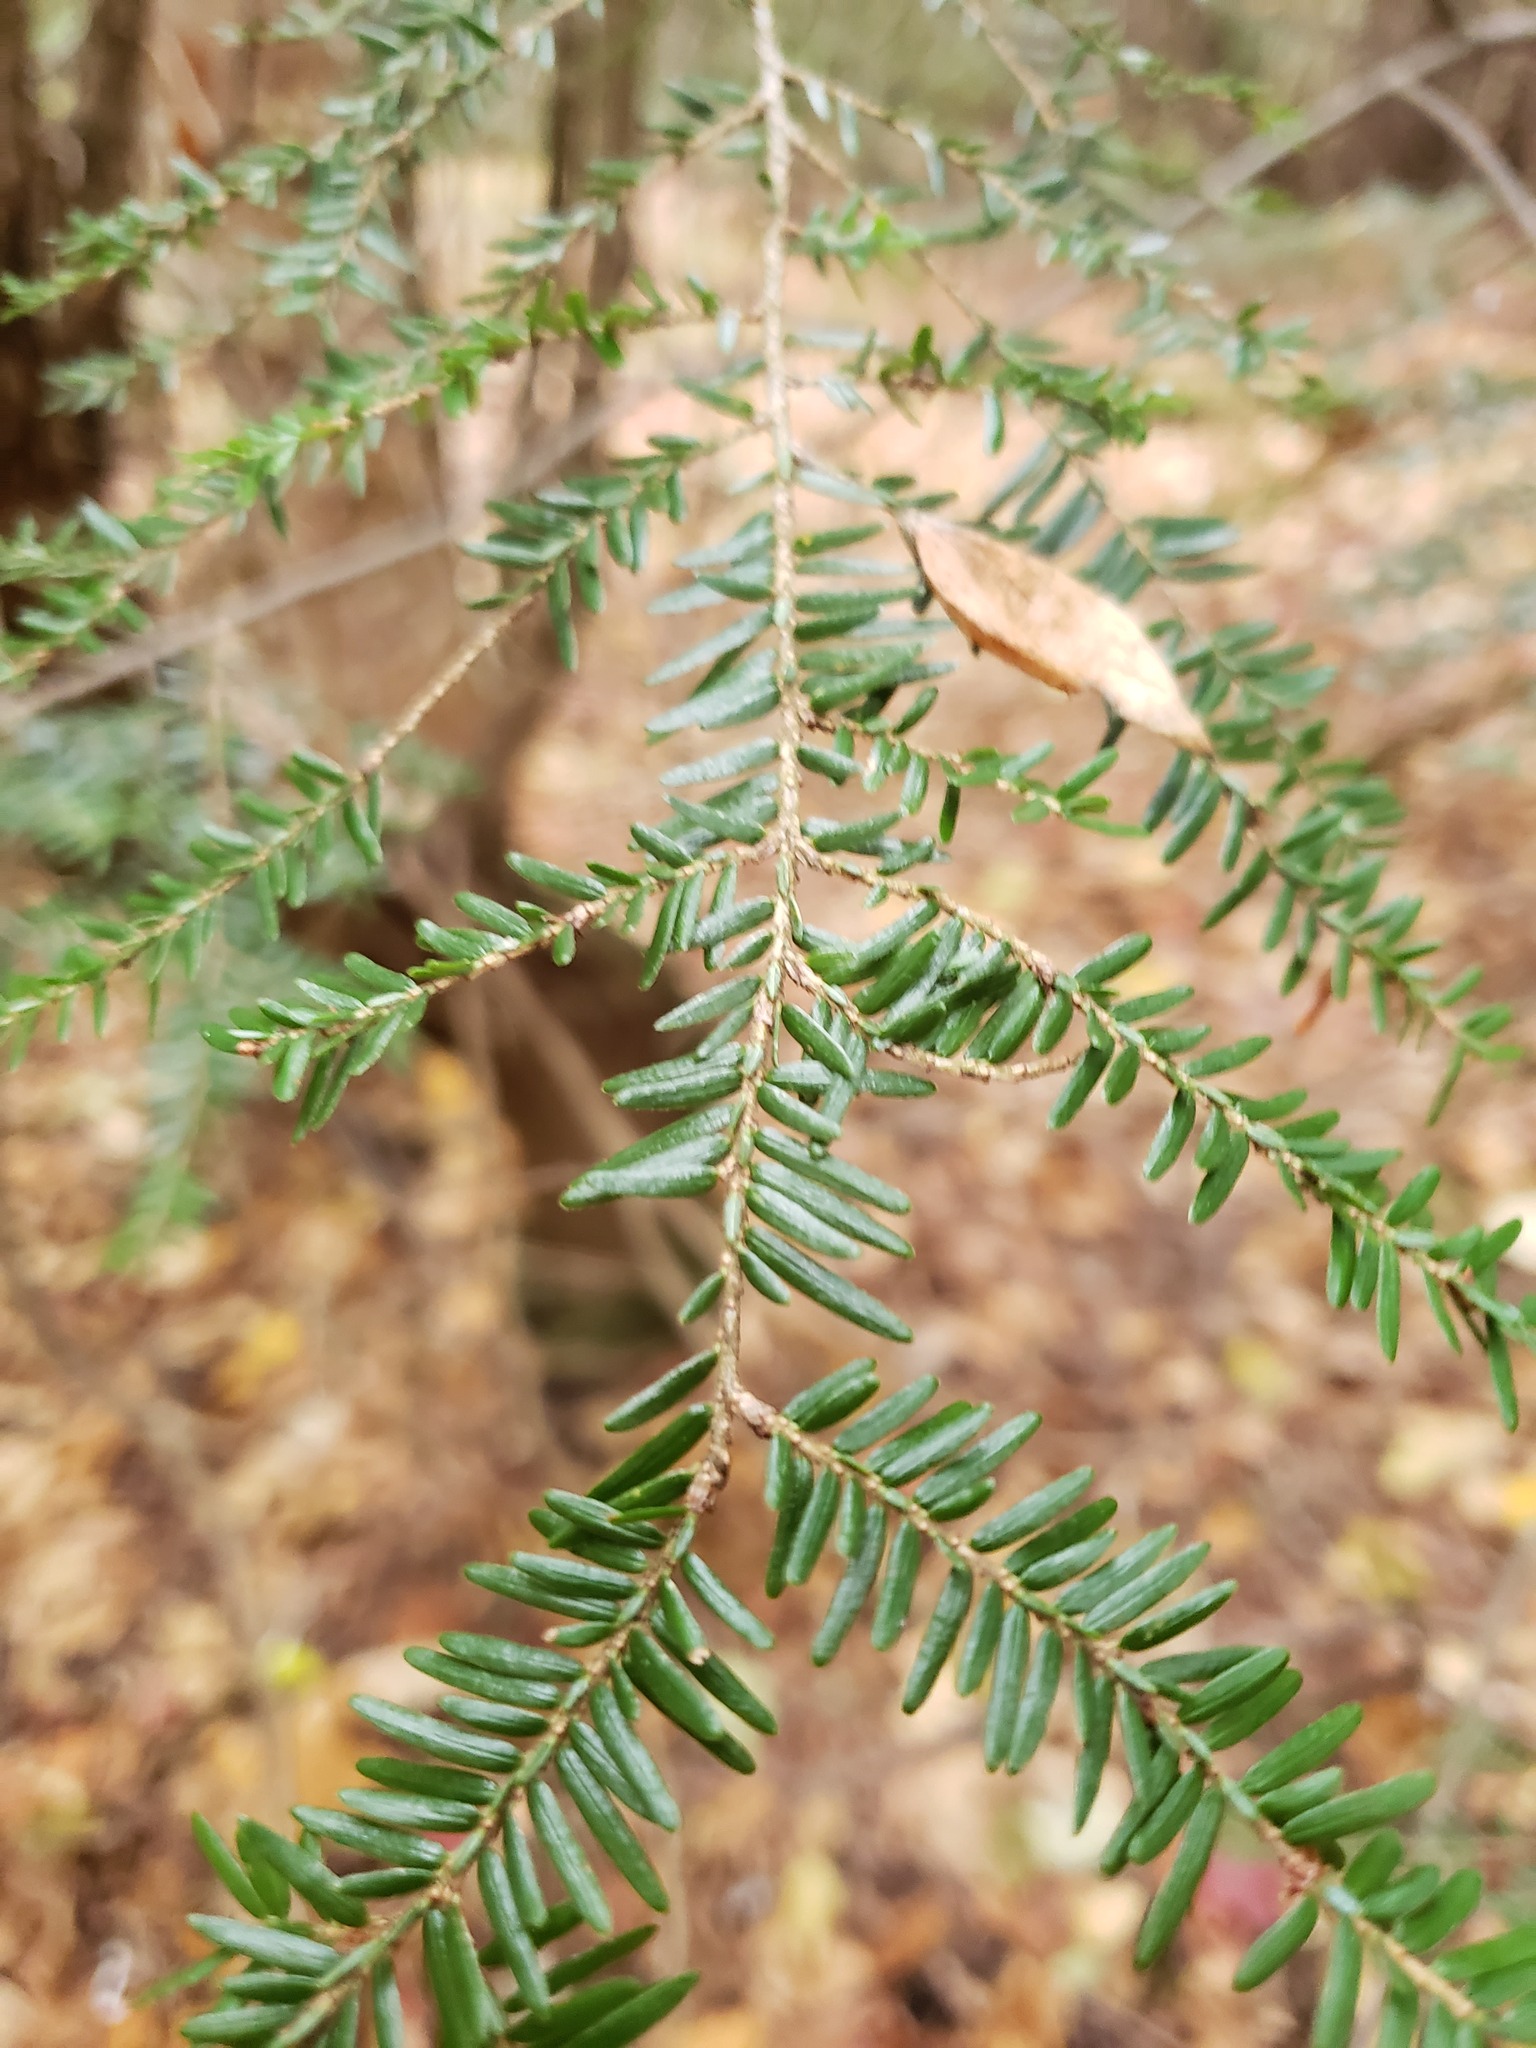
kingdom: Plantae
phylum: Tracheophyta
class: Pinopsida
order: Pinales
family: Pinaceae
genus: Tsuga
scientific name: Tsuga canadensis
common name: Eastern hemlock
